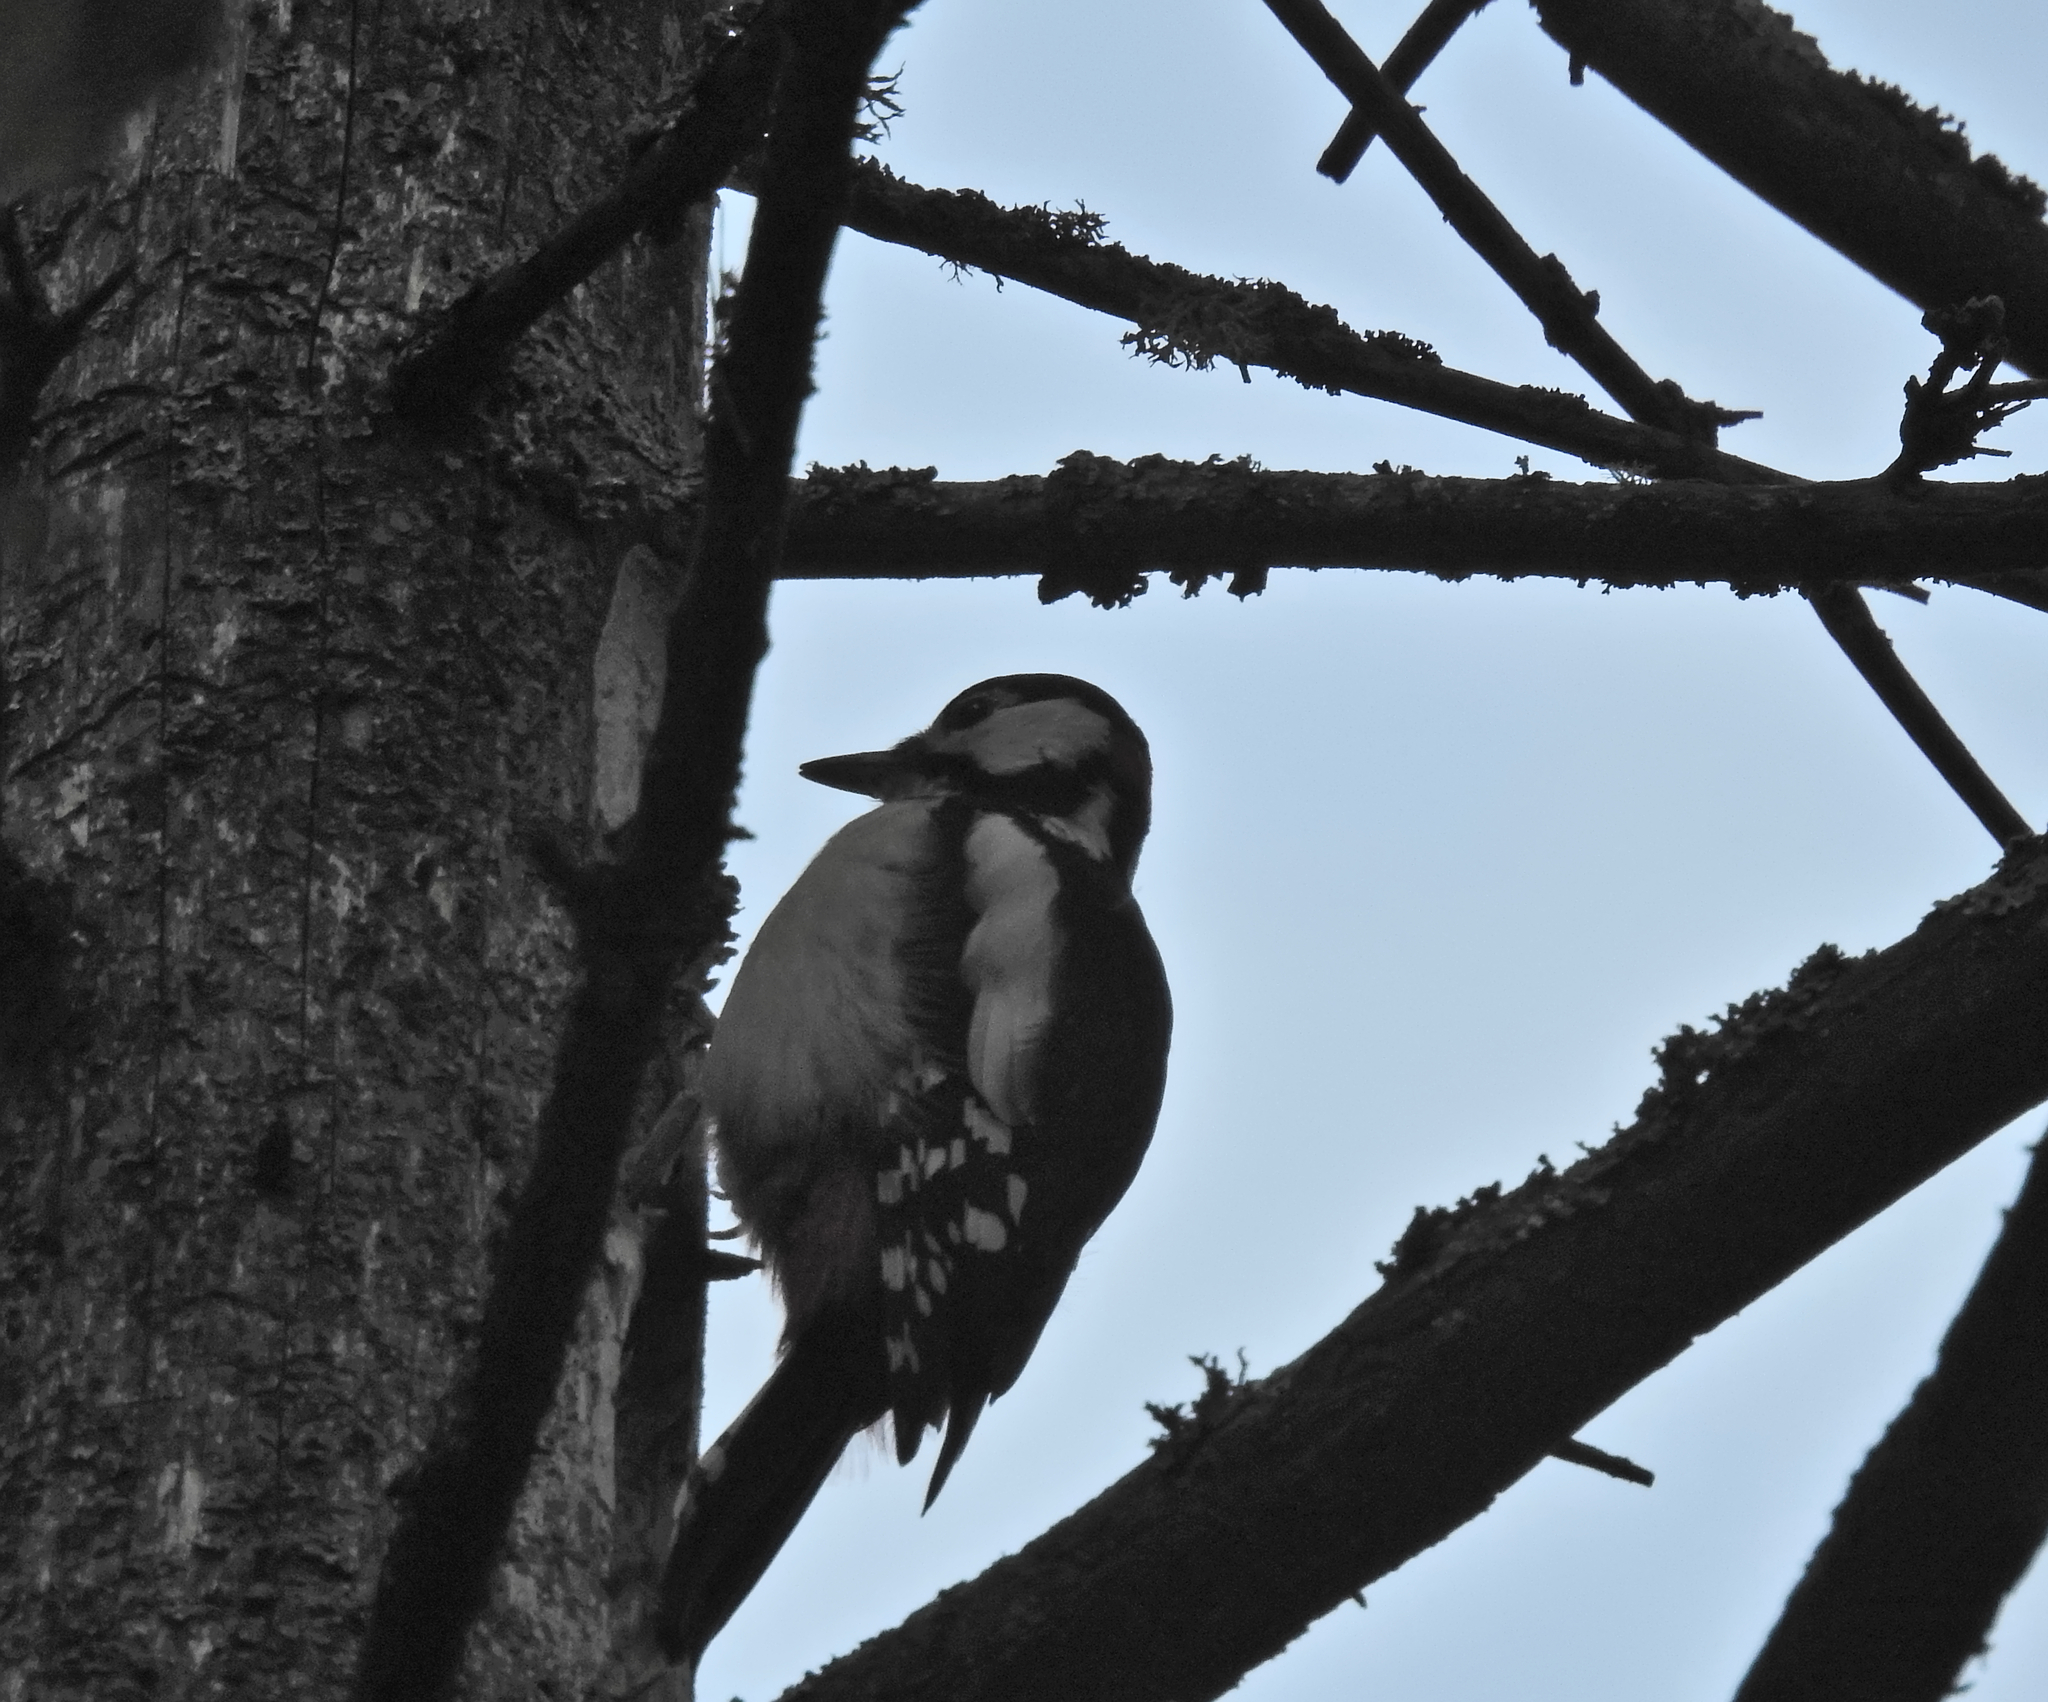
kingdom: Animalia
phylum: Chordata
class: Aves
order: Piciformes
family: Picidae
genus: Dendrocopos
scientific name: Dendrocopos major
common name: Great spotted woodpecker
